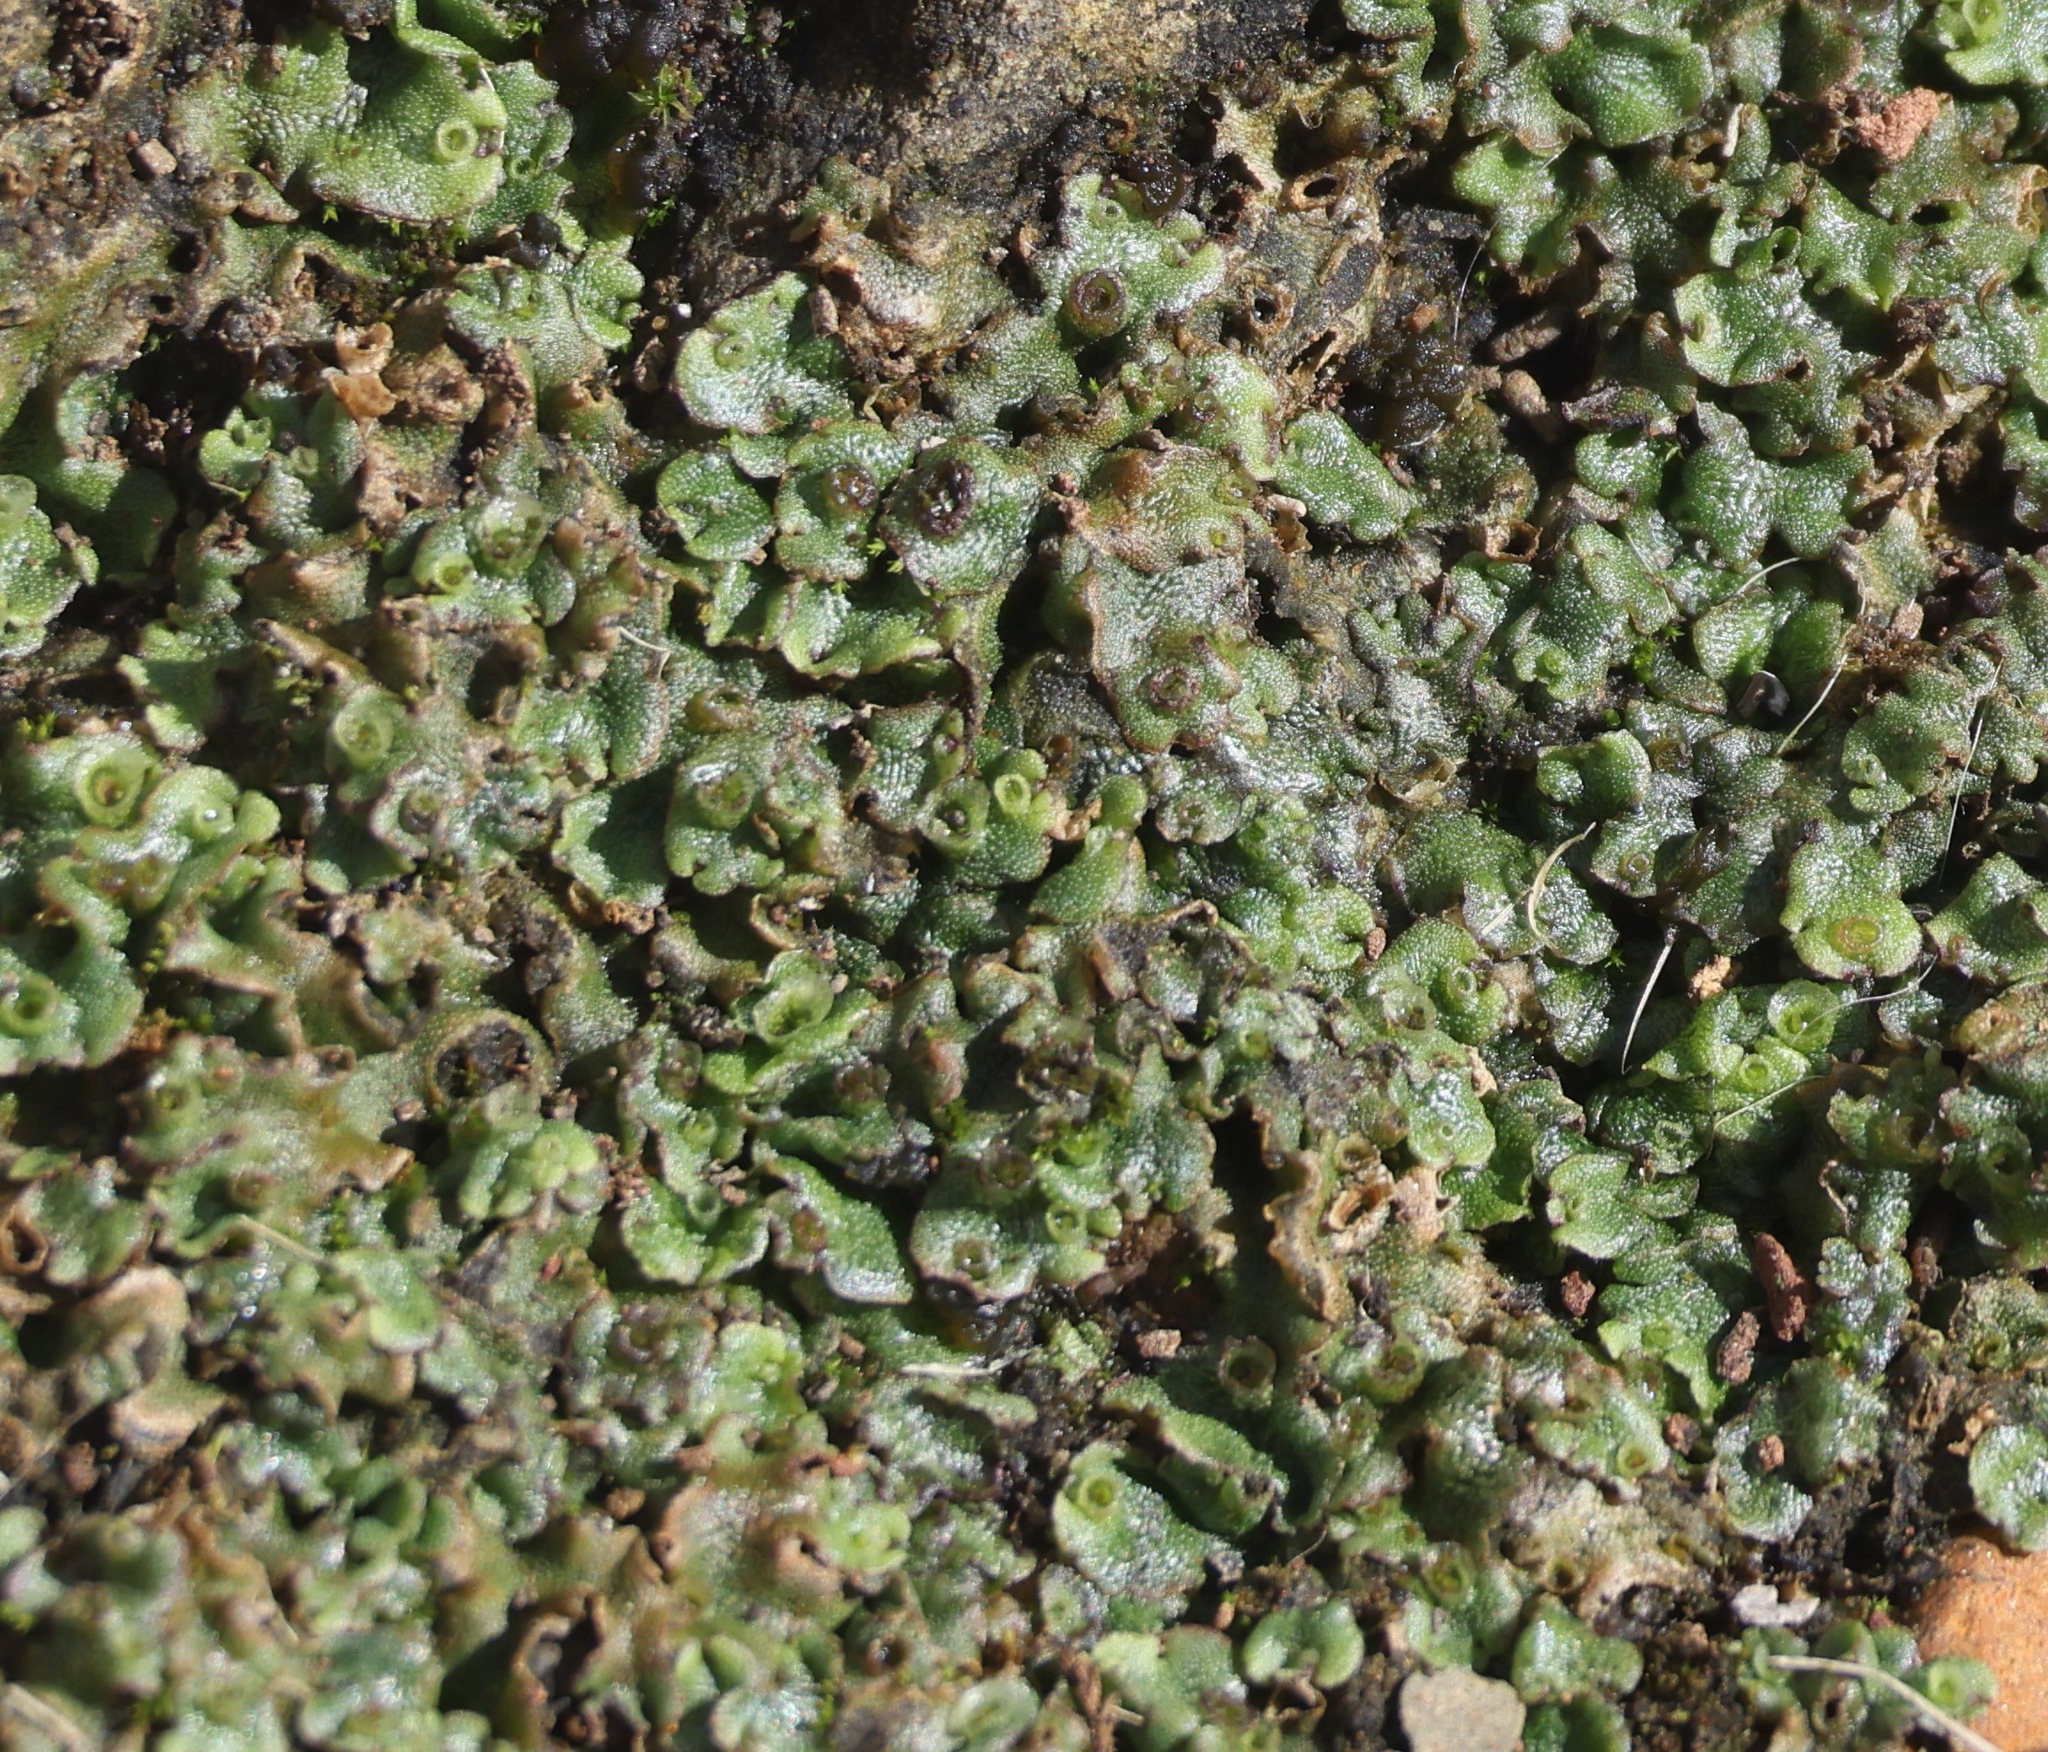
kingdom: Plantae
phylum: Marchantiophyta
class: Marchantiopsida
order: Marchantiales
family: Marchantiaceae
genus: Marchantia
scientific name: Marchantia polymorpha
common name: Common liverwort
